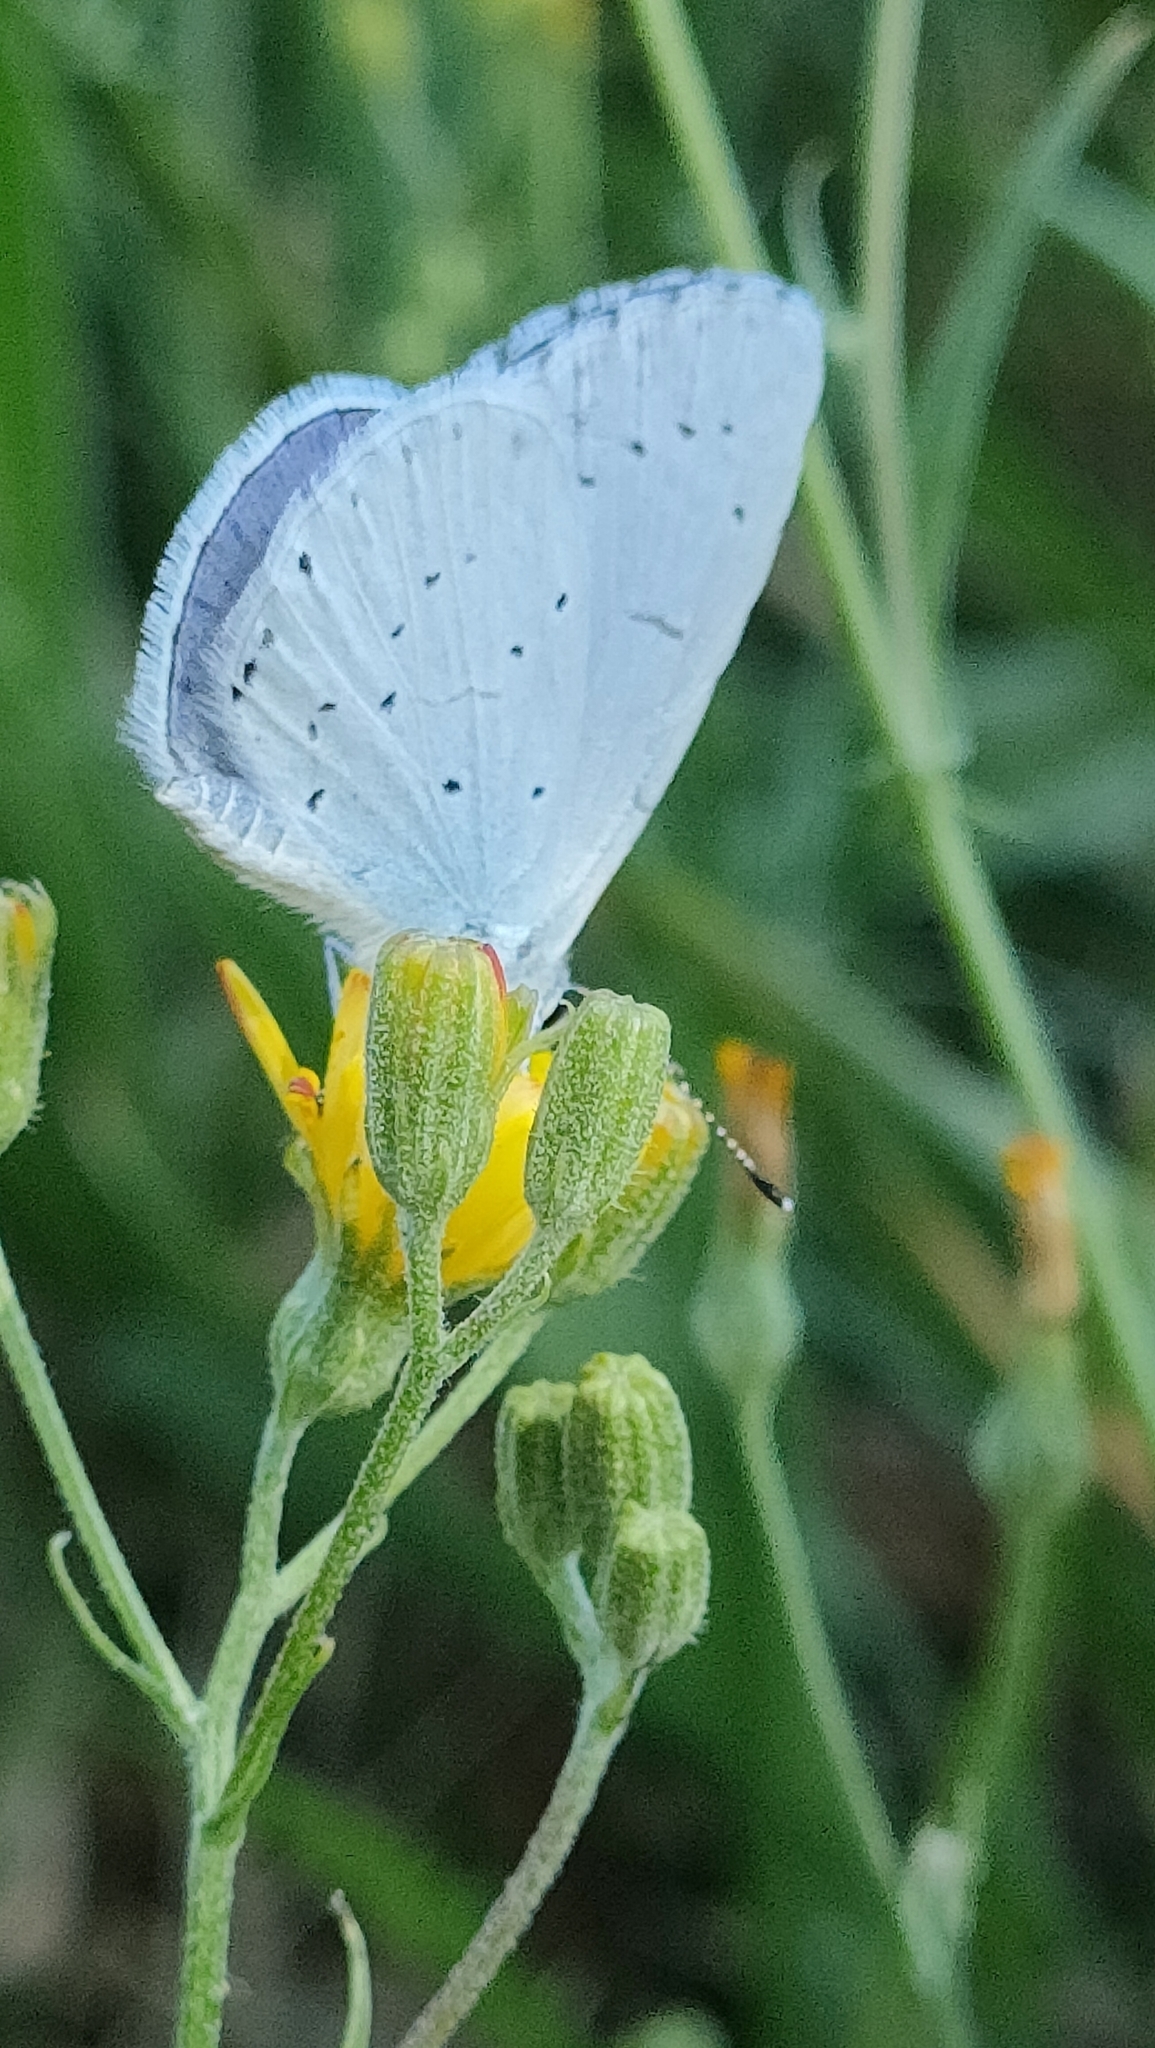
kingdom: Animalia
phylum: Arthropoda
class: Insecta
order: Lepidoptera
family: Lycaenidae
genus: Celastrina
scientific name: Celastrina argiolus
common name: Holly blue
